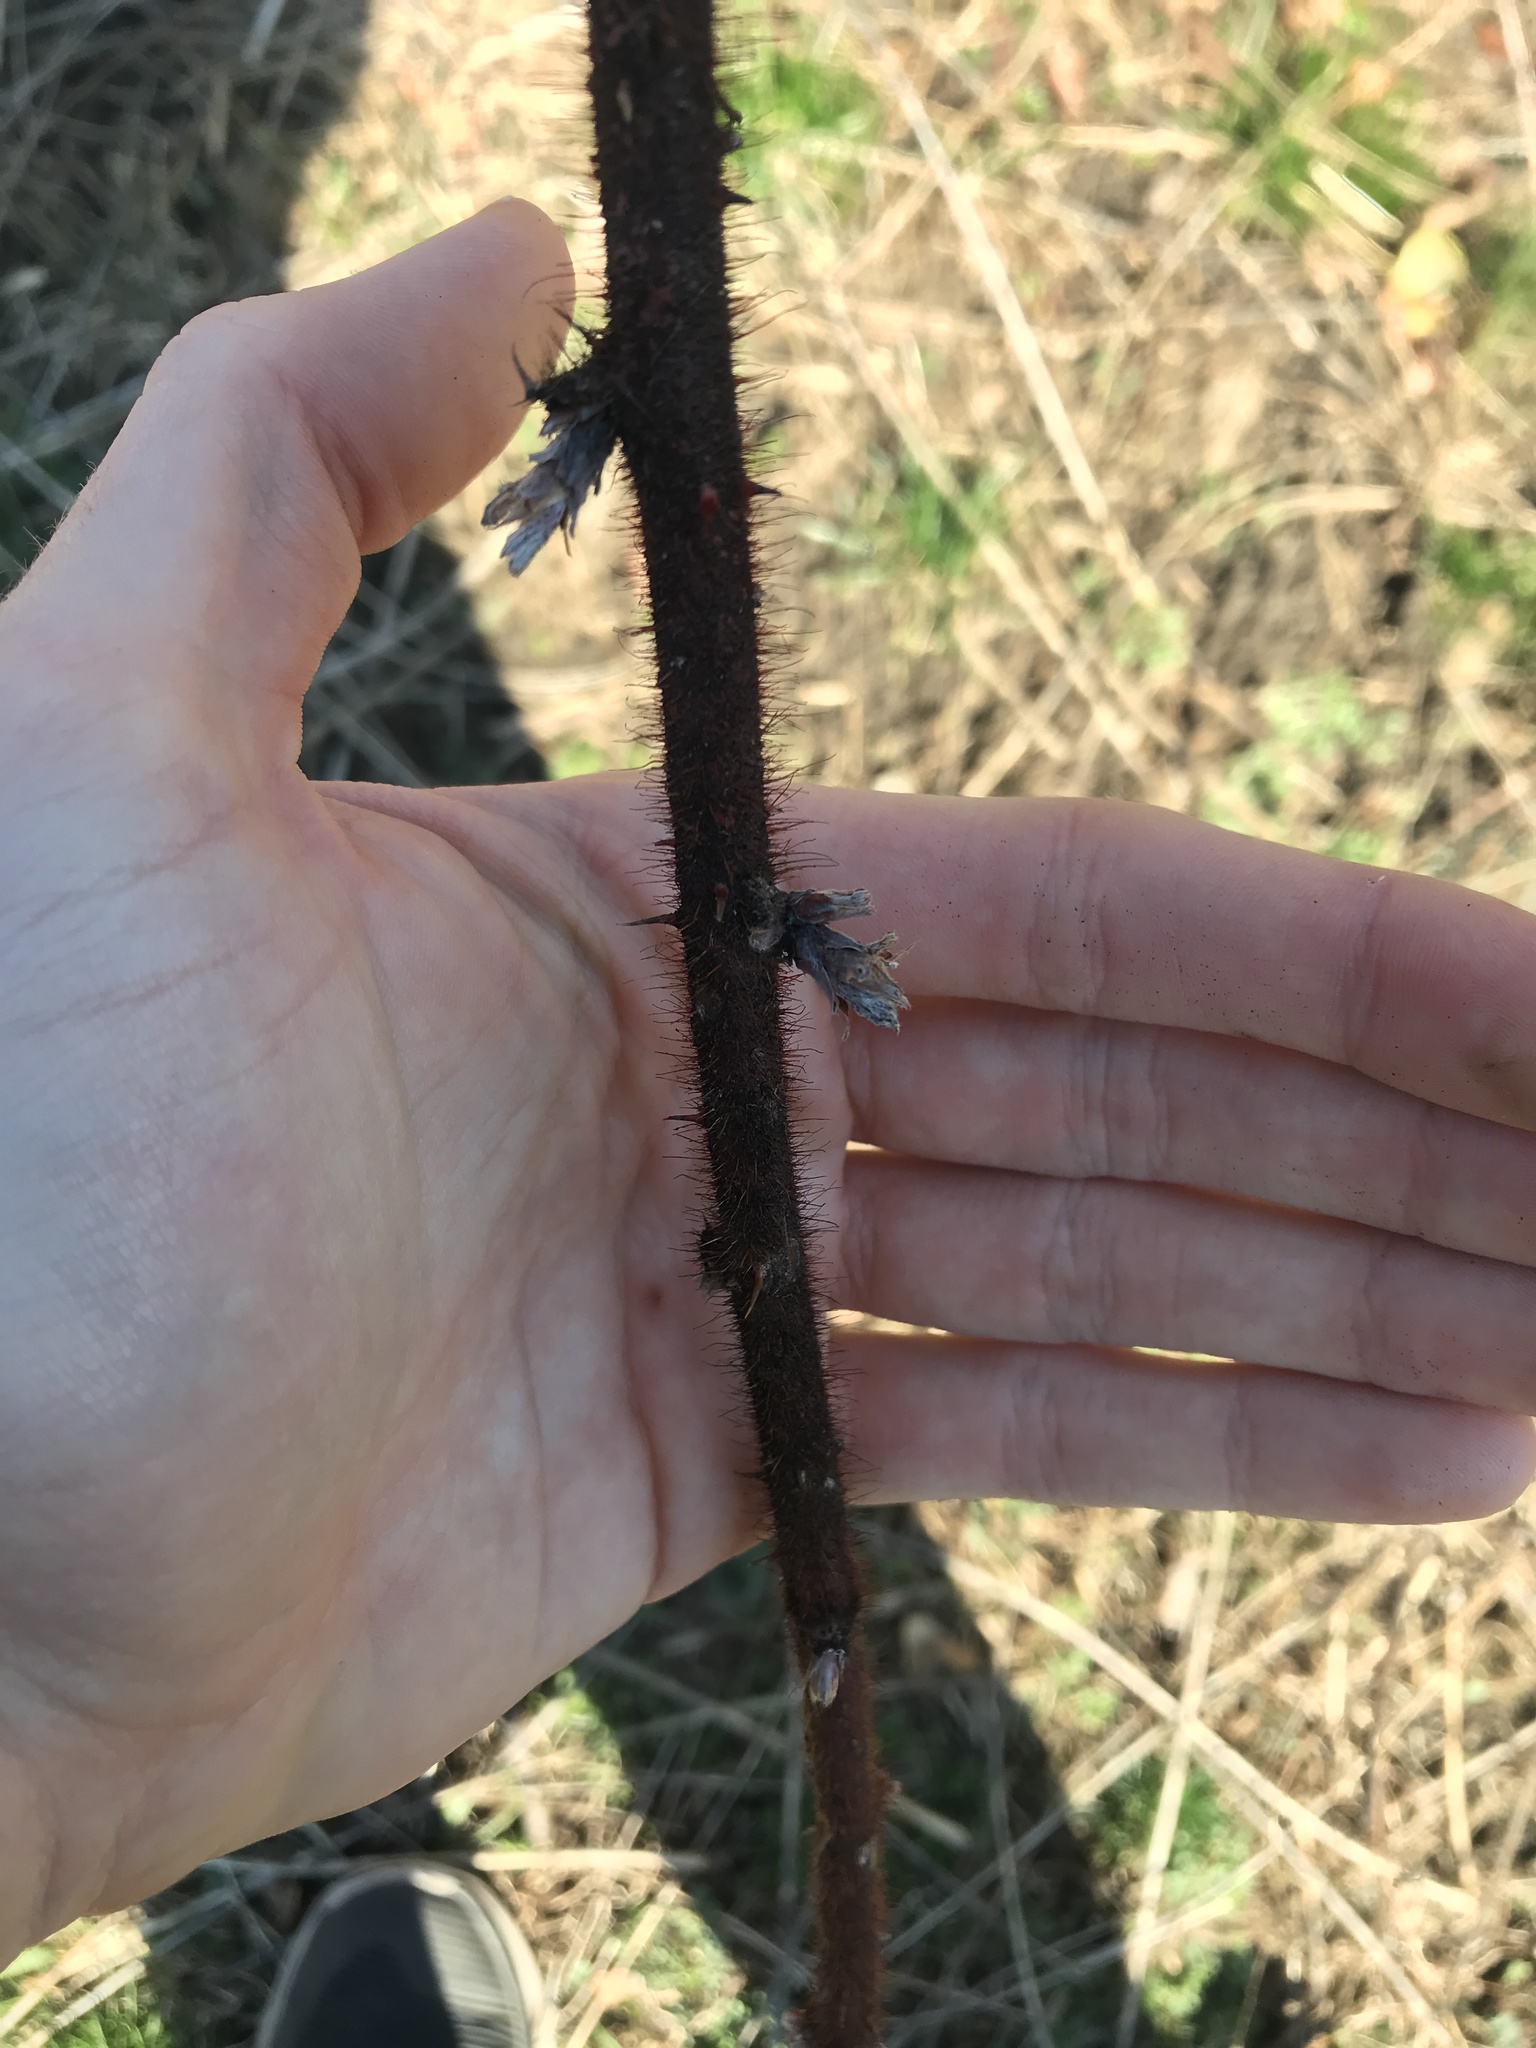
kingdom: Plantae
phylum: Tracheophyta
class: Magnoliopsida
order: Rosales
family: Rosaceae
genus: Rubus
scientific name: Rubus phoenicolasius
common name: Japanese wineberry
